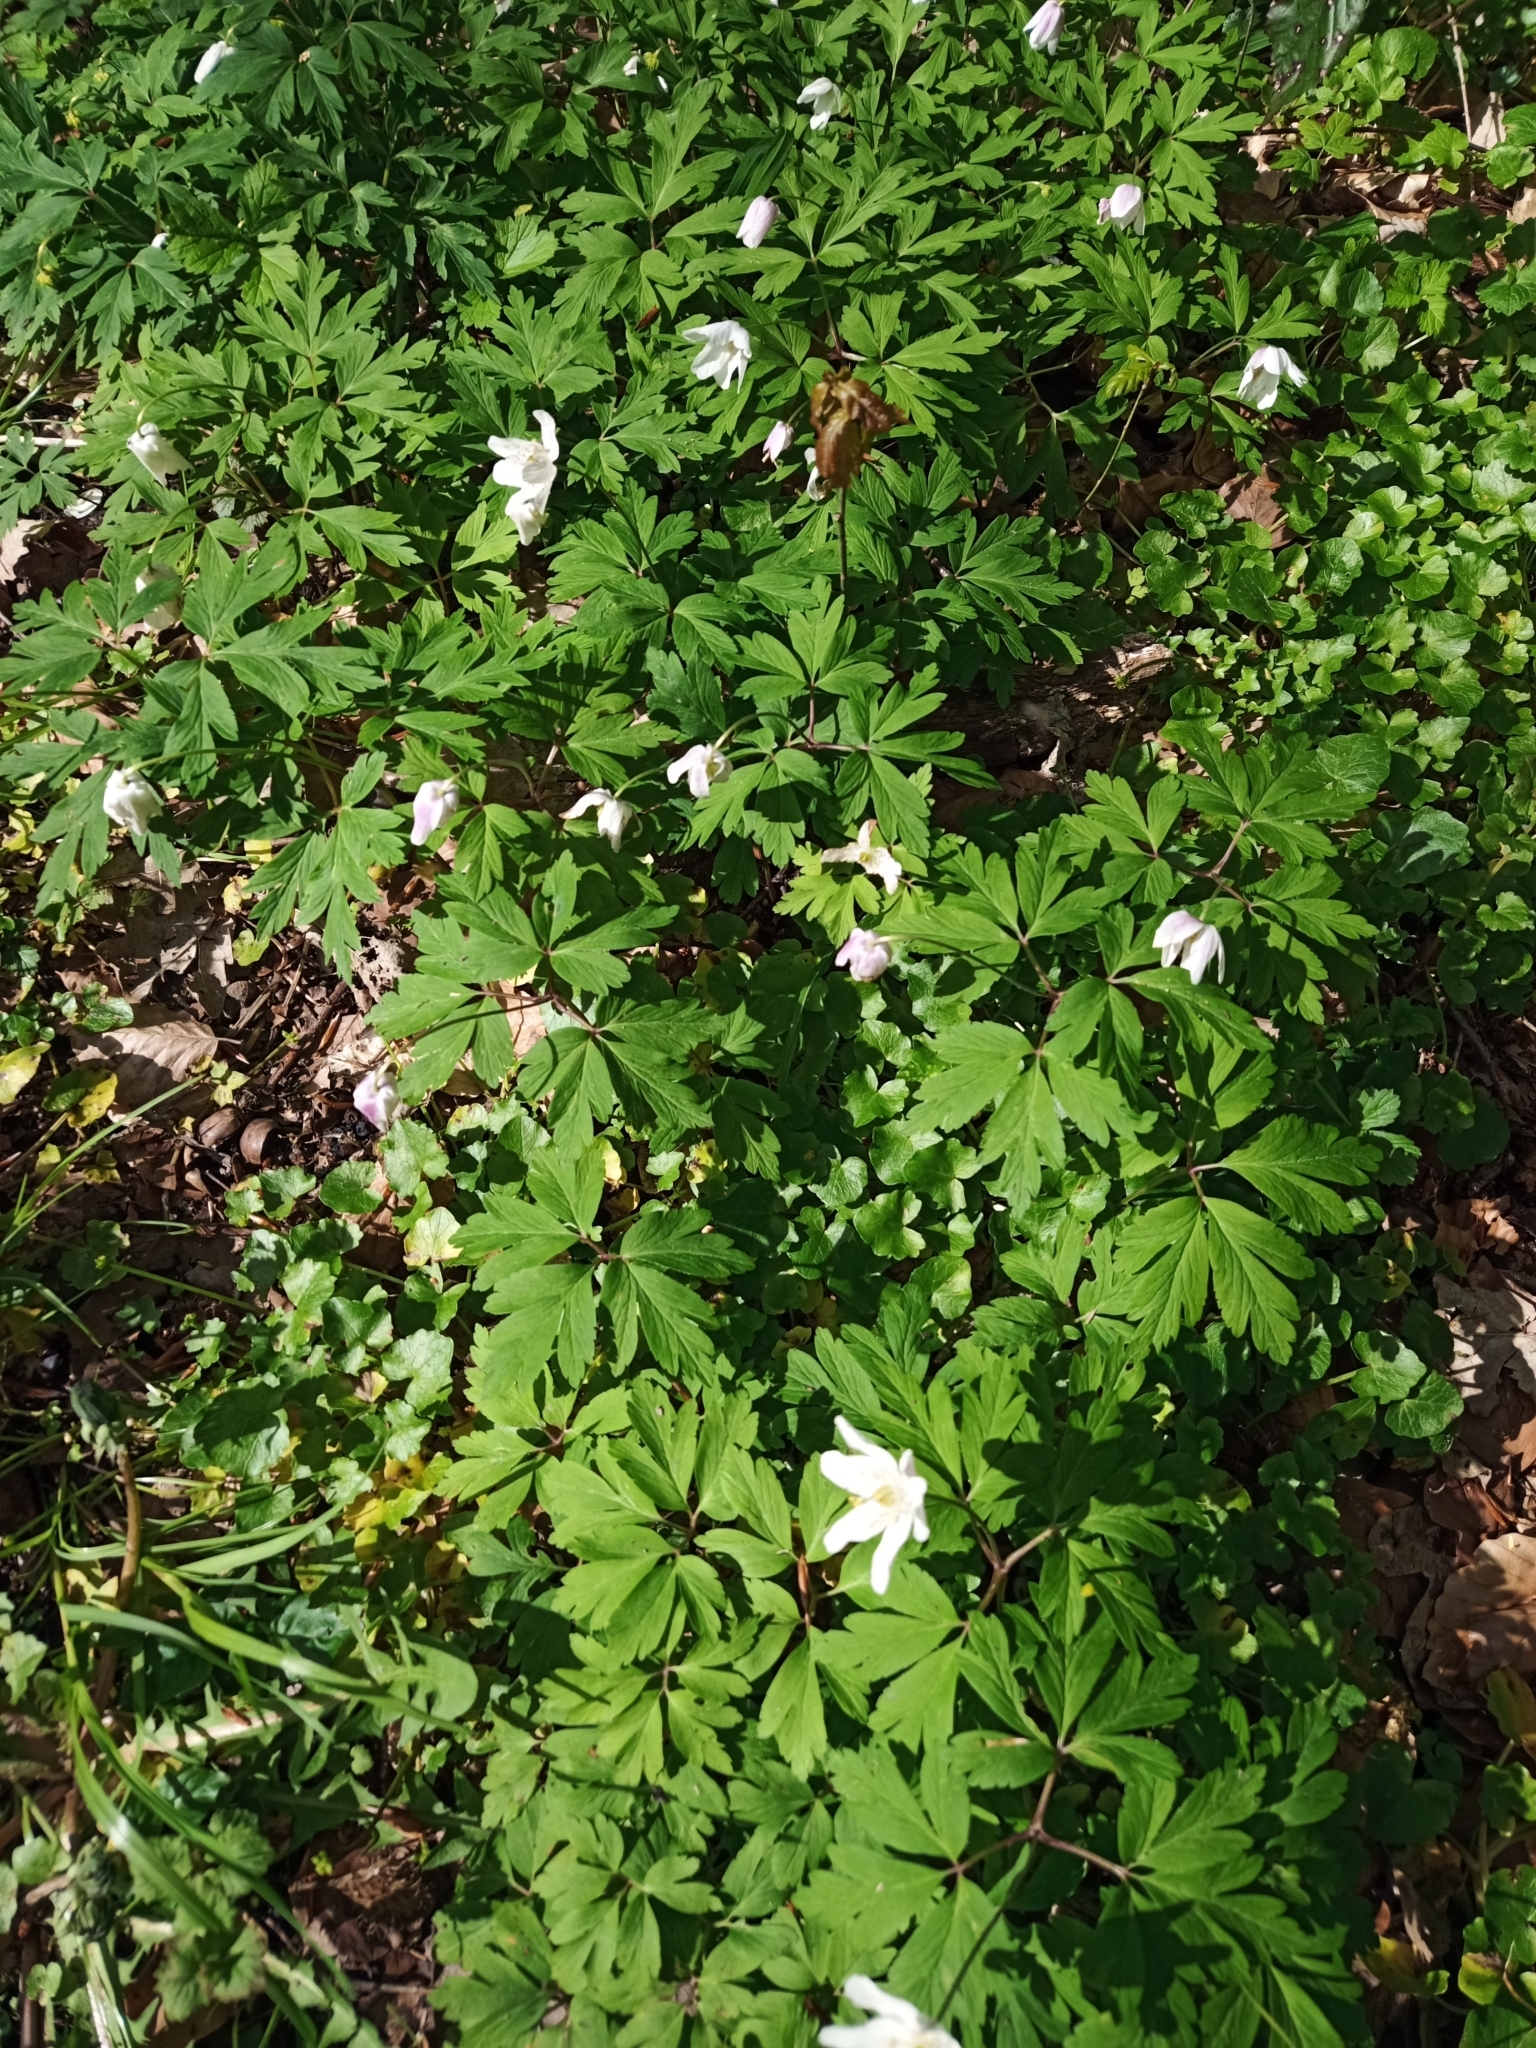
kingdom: Plantae
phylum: Tracheophyta
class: Magnoliopsida
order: Ranunculales
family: Ranunculaceae
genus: Anemone
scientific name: Anemone nemorosa
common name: Wood anemone
